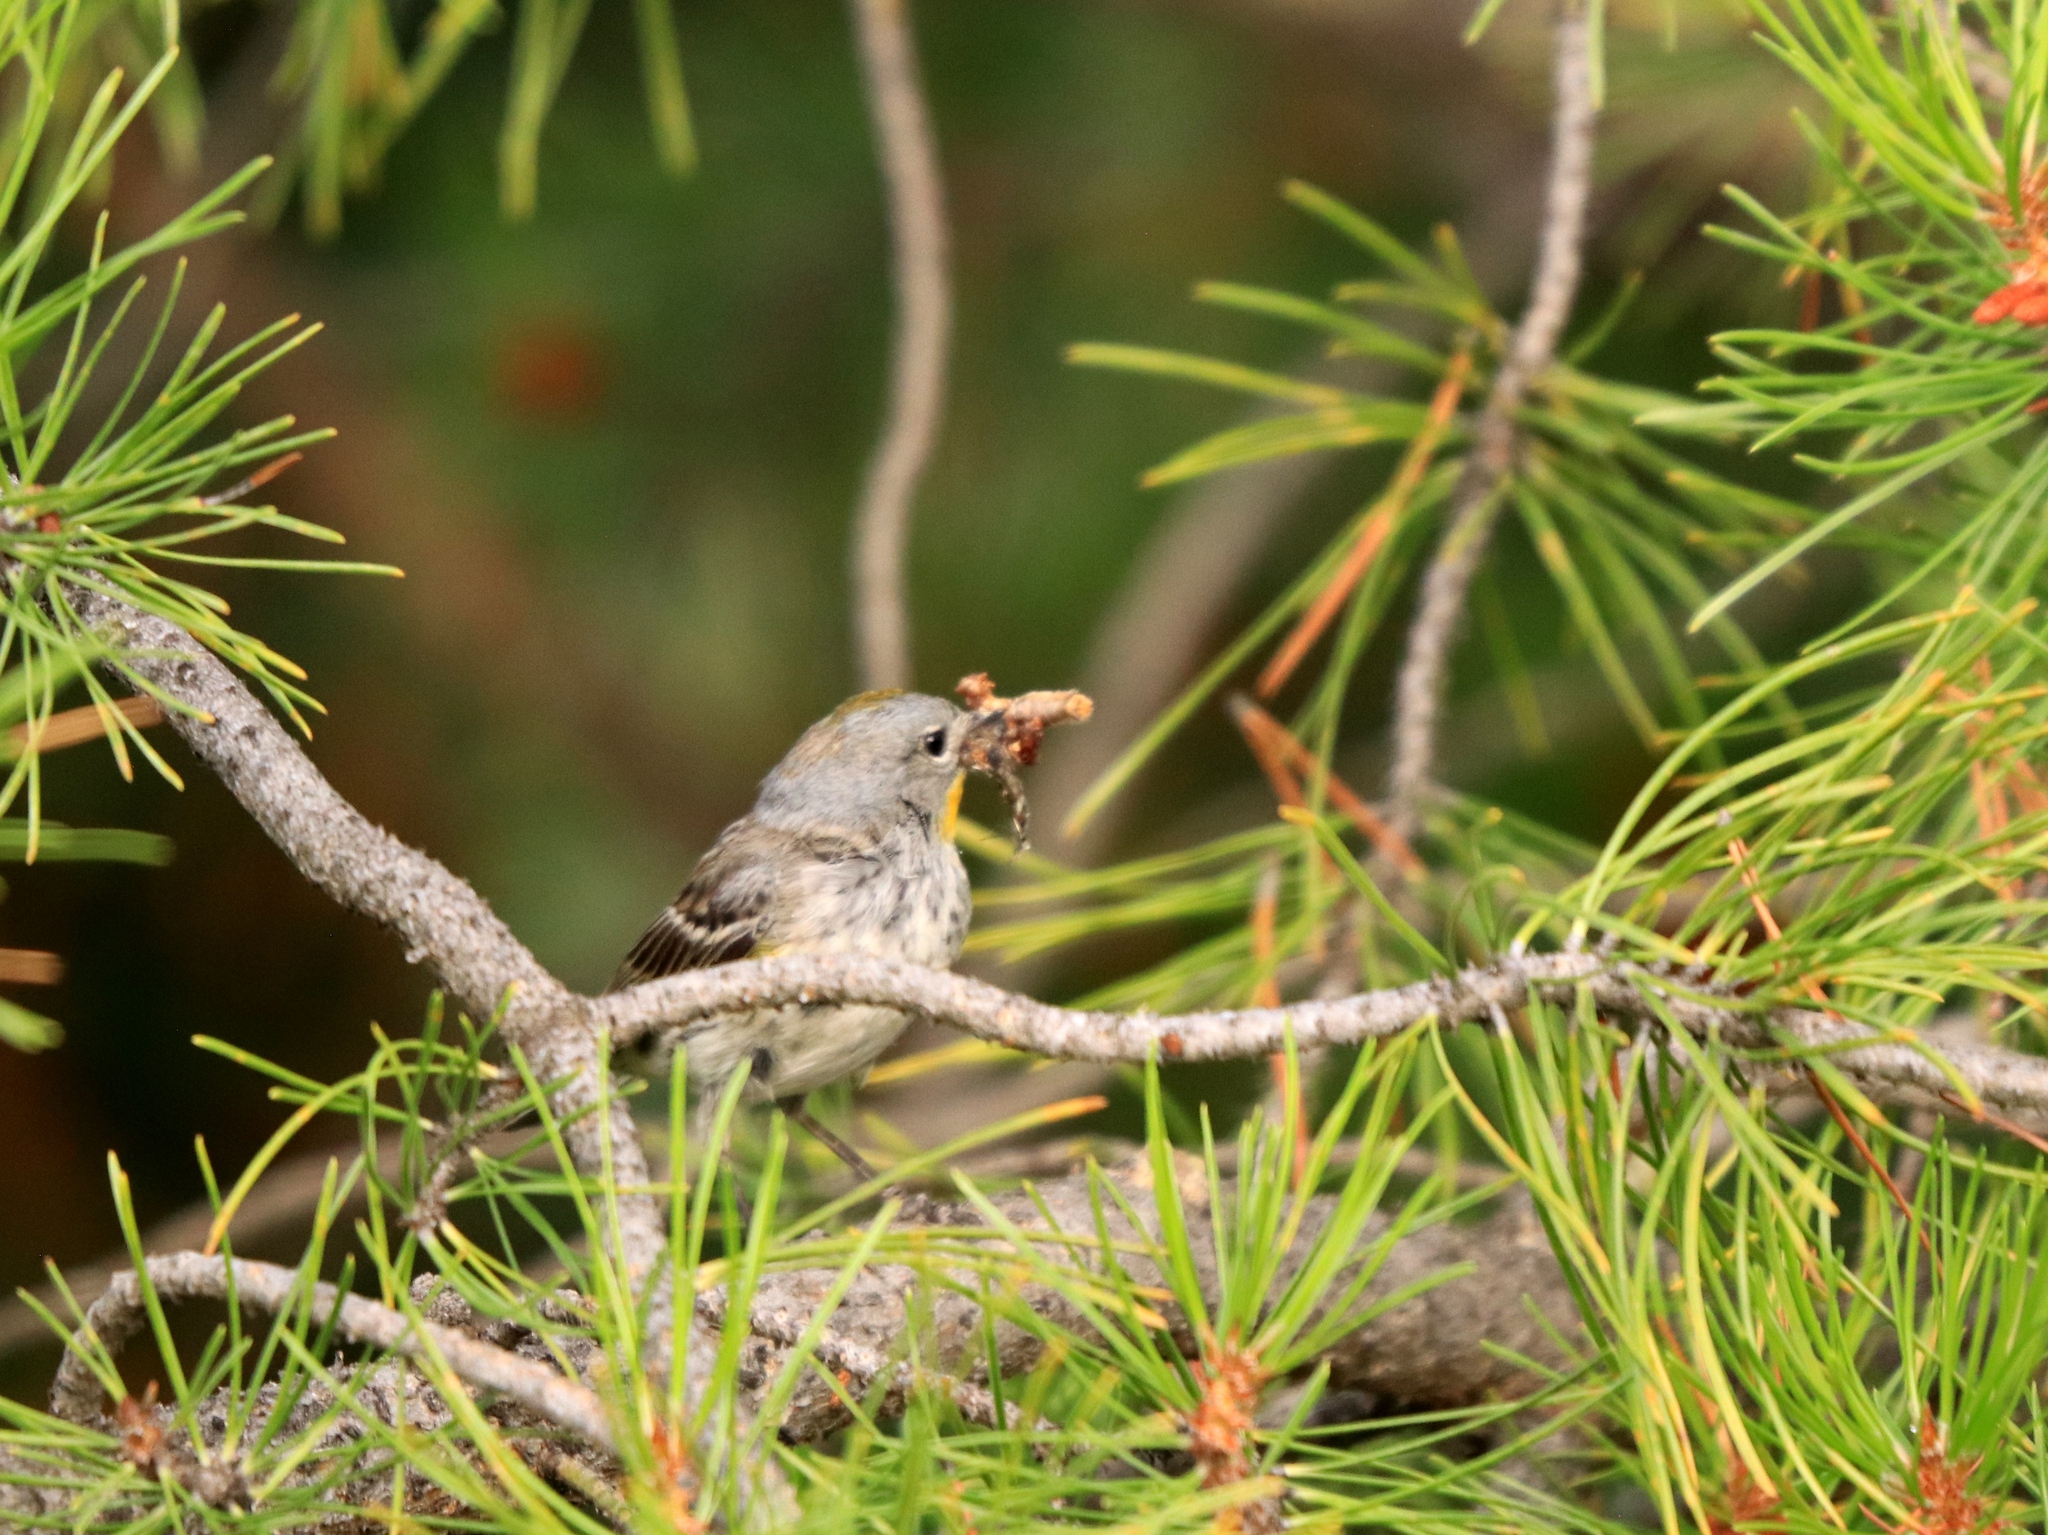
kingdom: Animalia
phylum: Chordata
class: Aves
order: Passeriformes
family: Parulidae
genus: Setophaga
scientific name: Setophaga coronata
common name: Myrtle warbler
